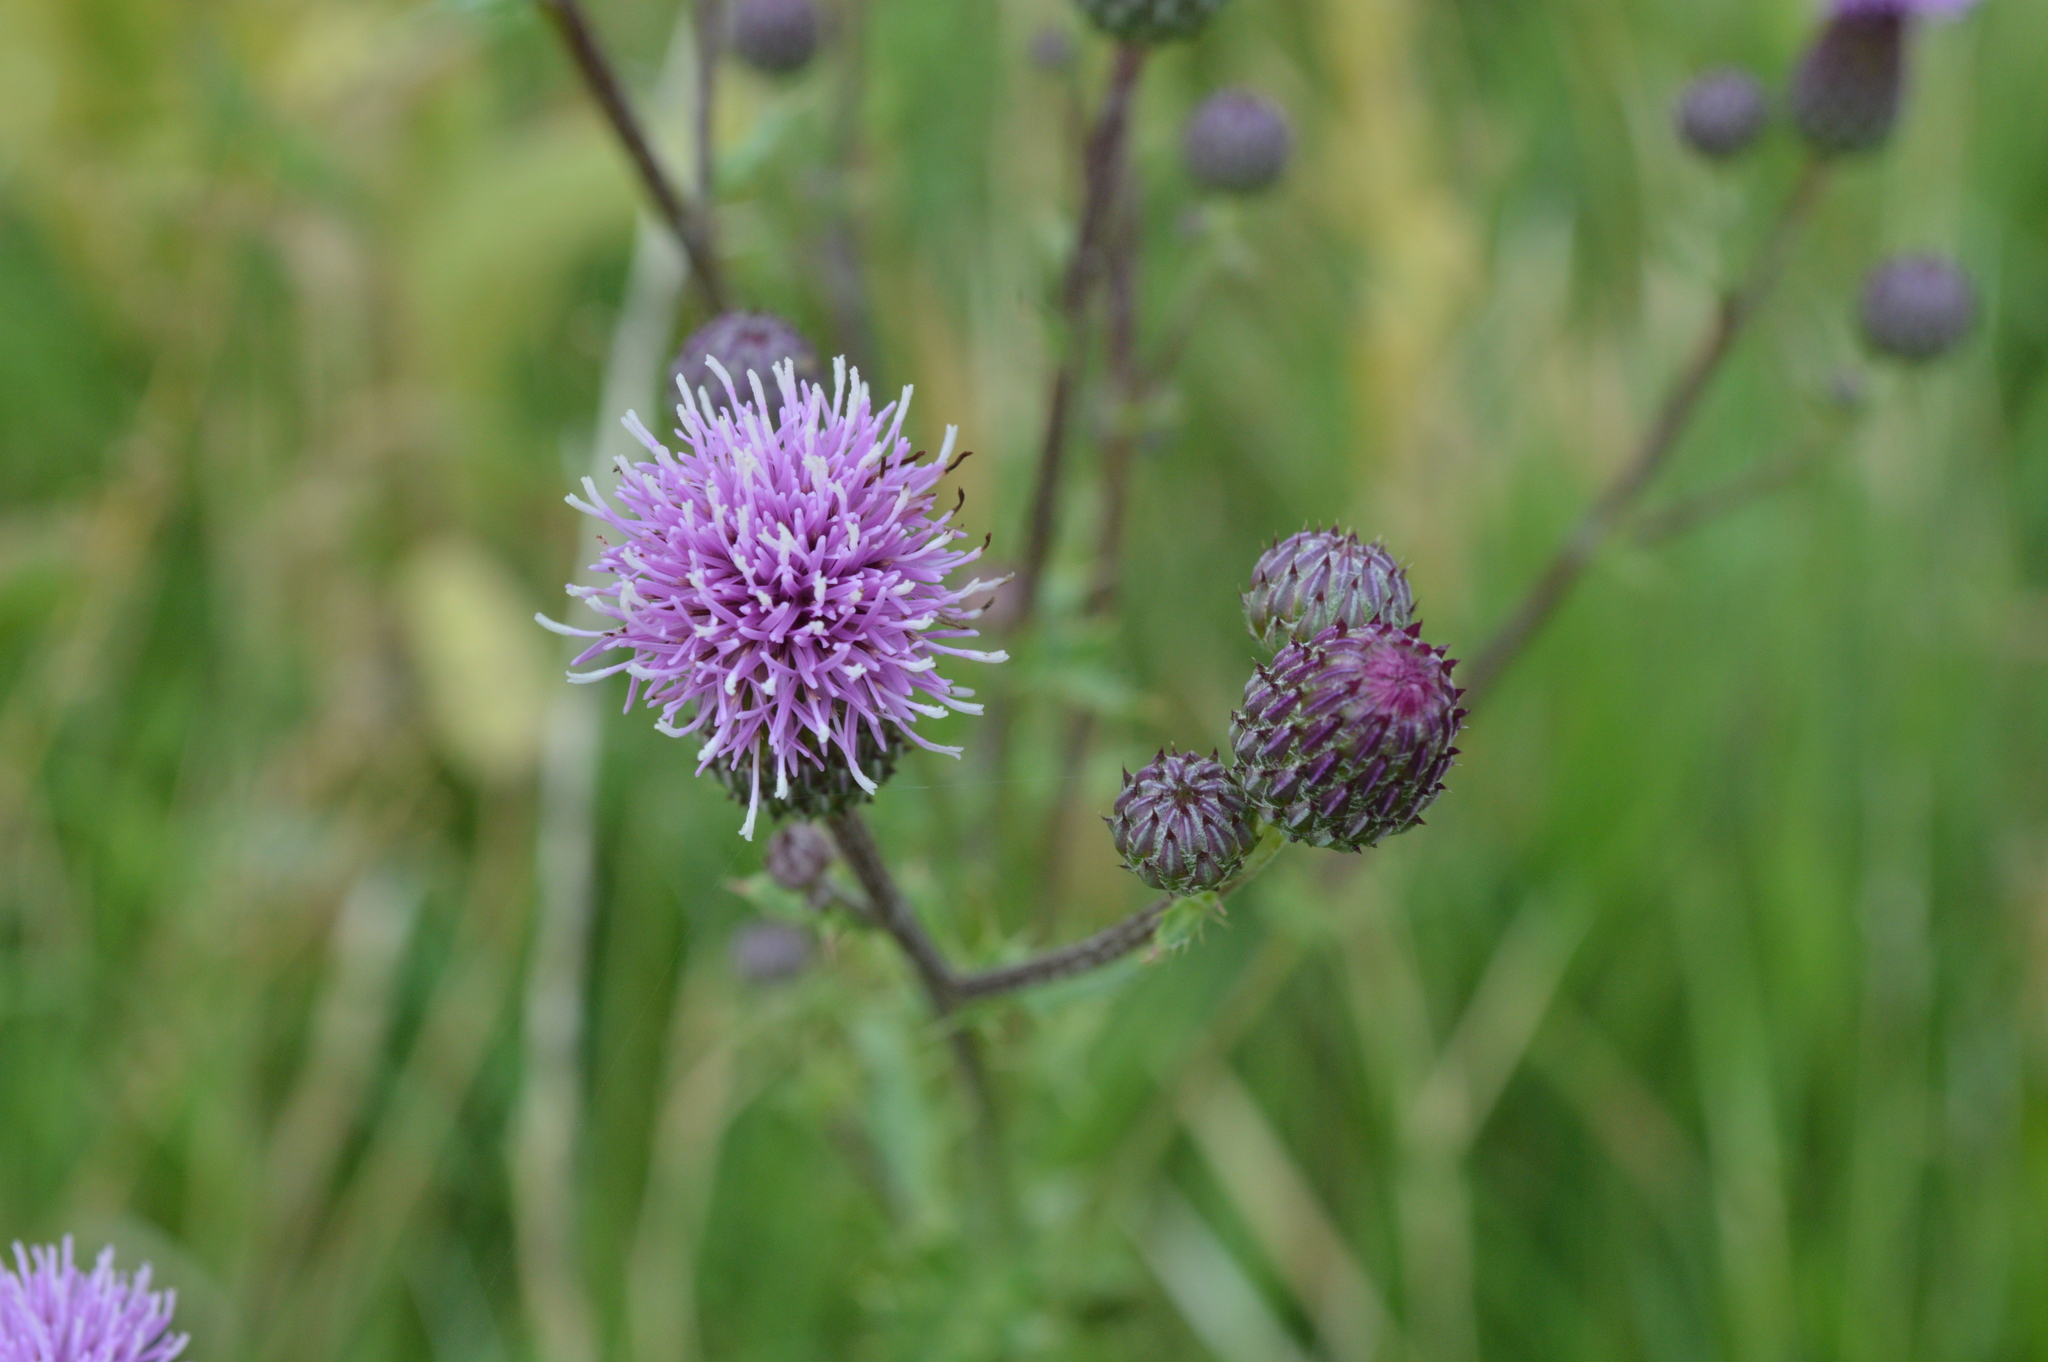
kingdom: Plantae
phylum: Tracheophyta
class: Magnoliopsida
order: Asterales
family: Asteraceae
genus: Cirsium
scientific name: Cirsium arvense
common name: Creeping thistle
